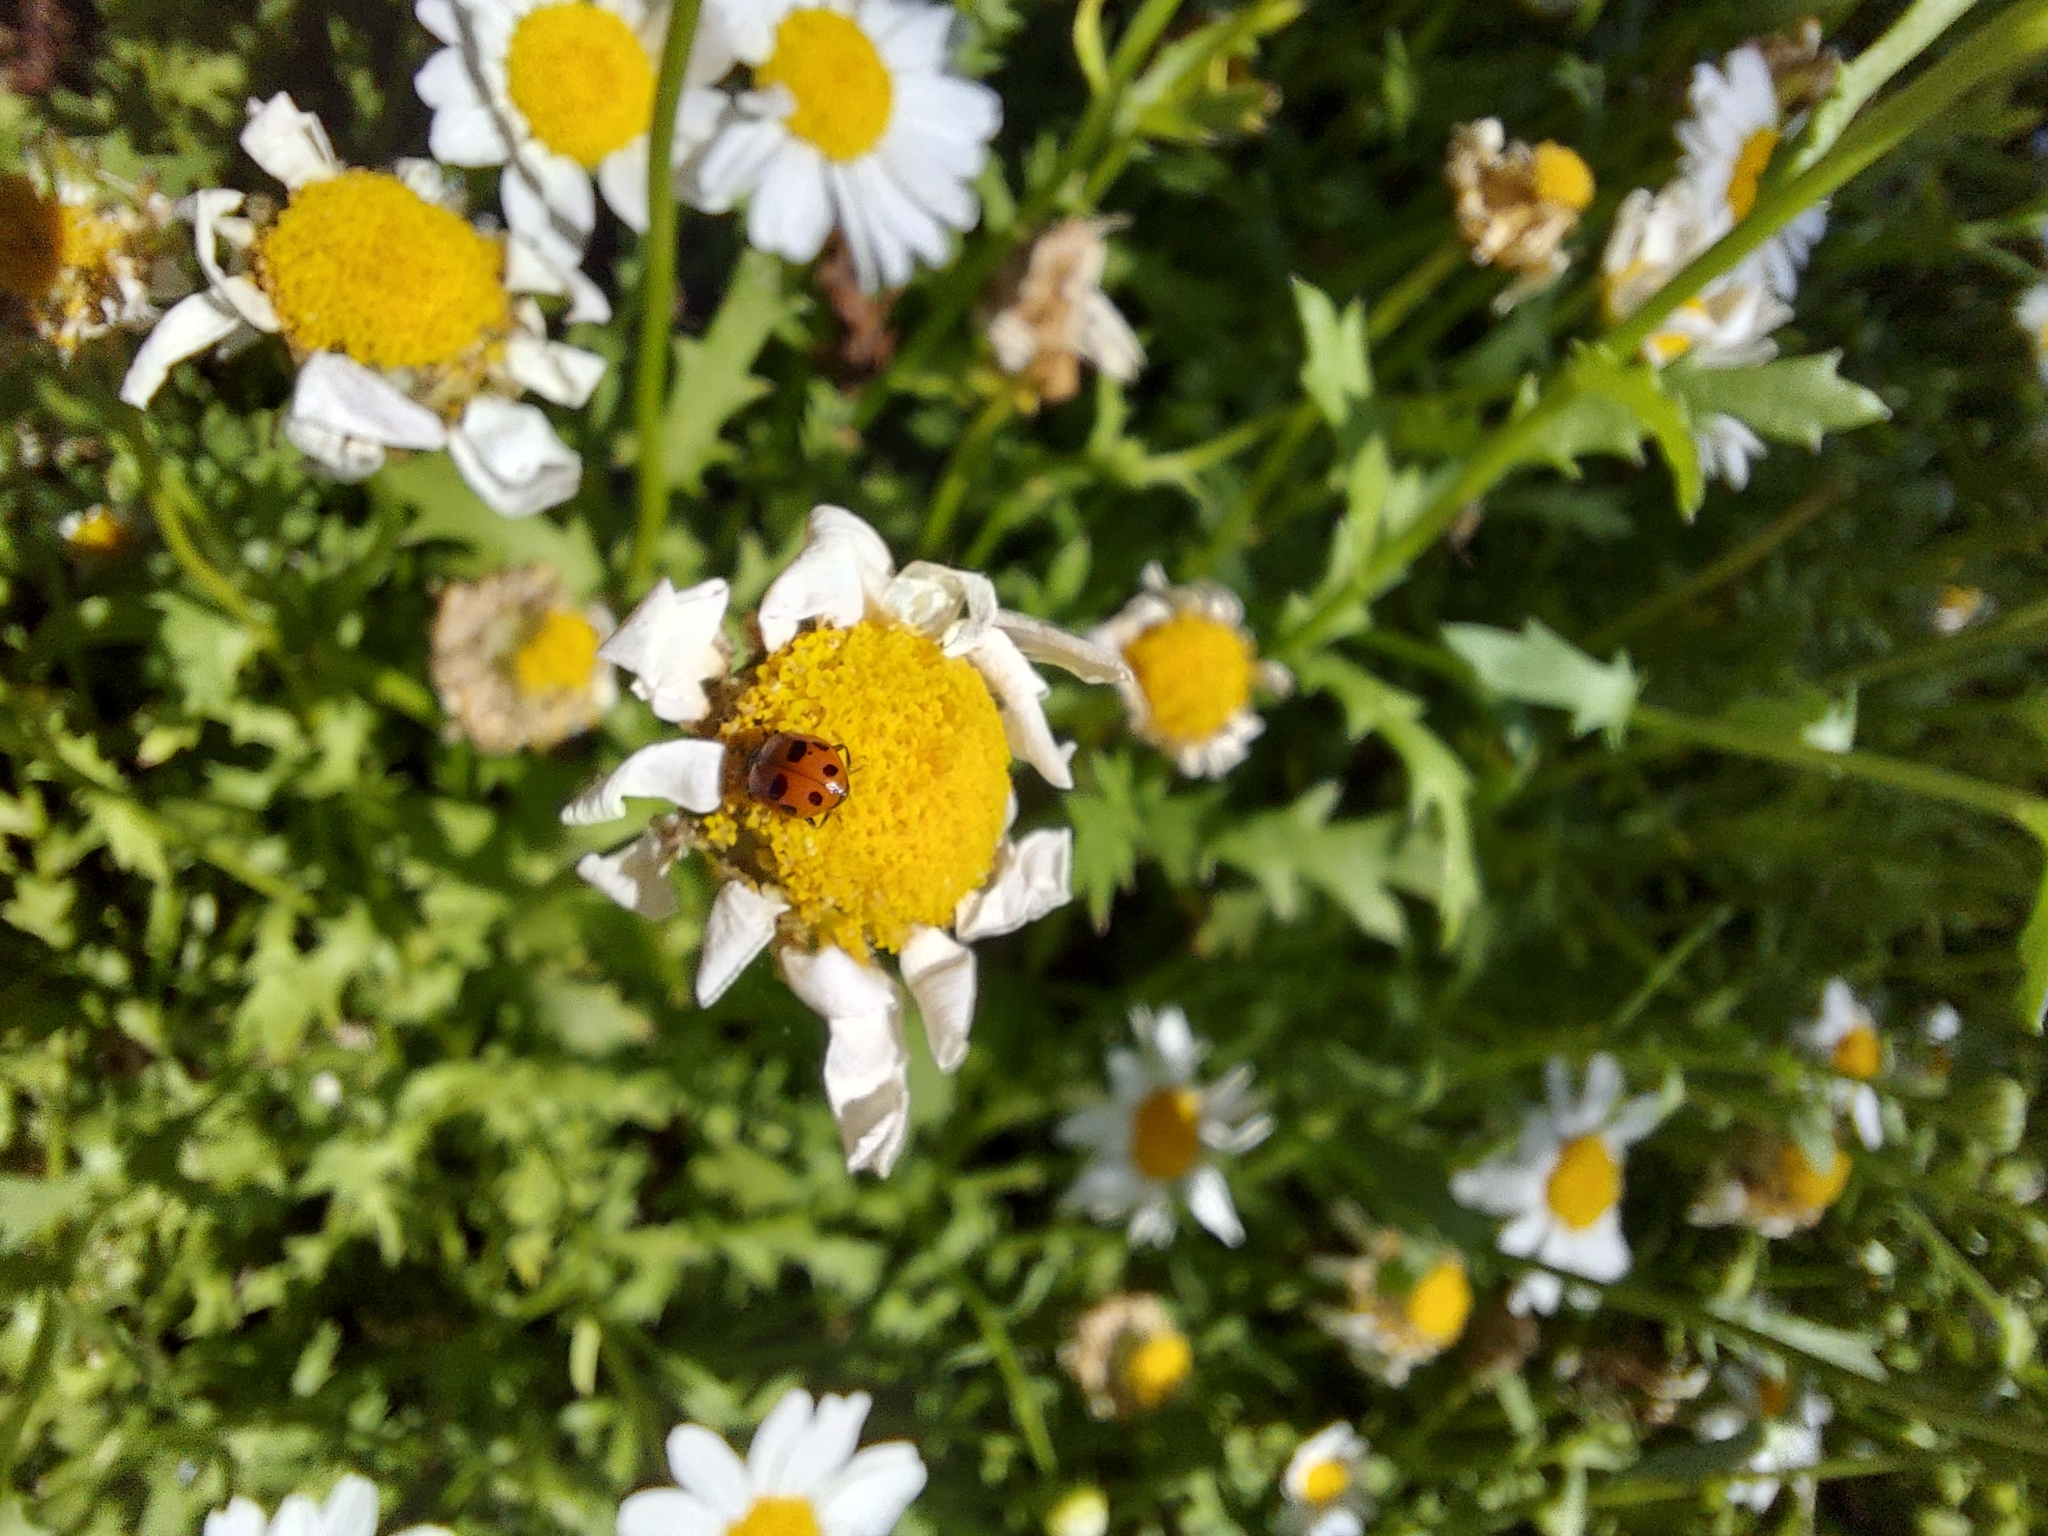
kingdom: Animalia
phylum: Arthropoda
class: Insecta
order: Coleoptera
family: Coccinellidae
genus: Hippodamia
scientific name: Hippodamia variegata
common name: Ladybird beetle
